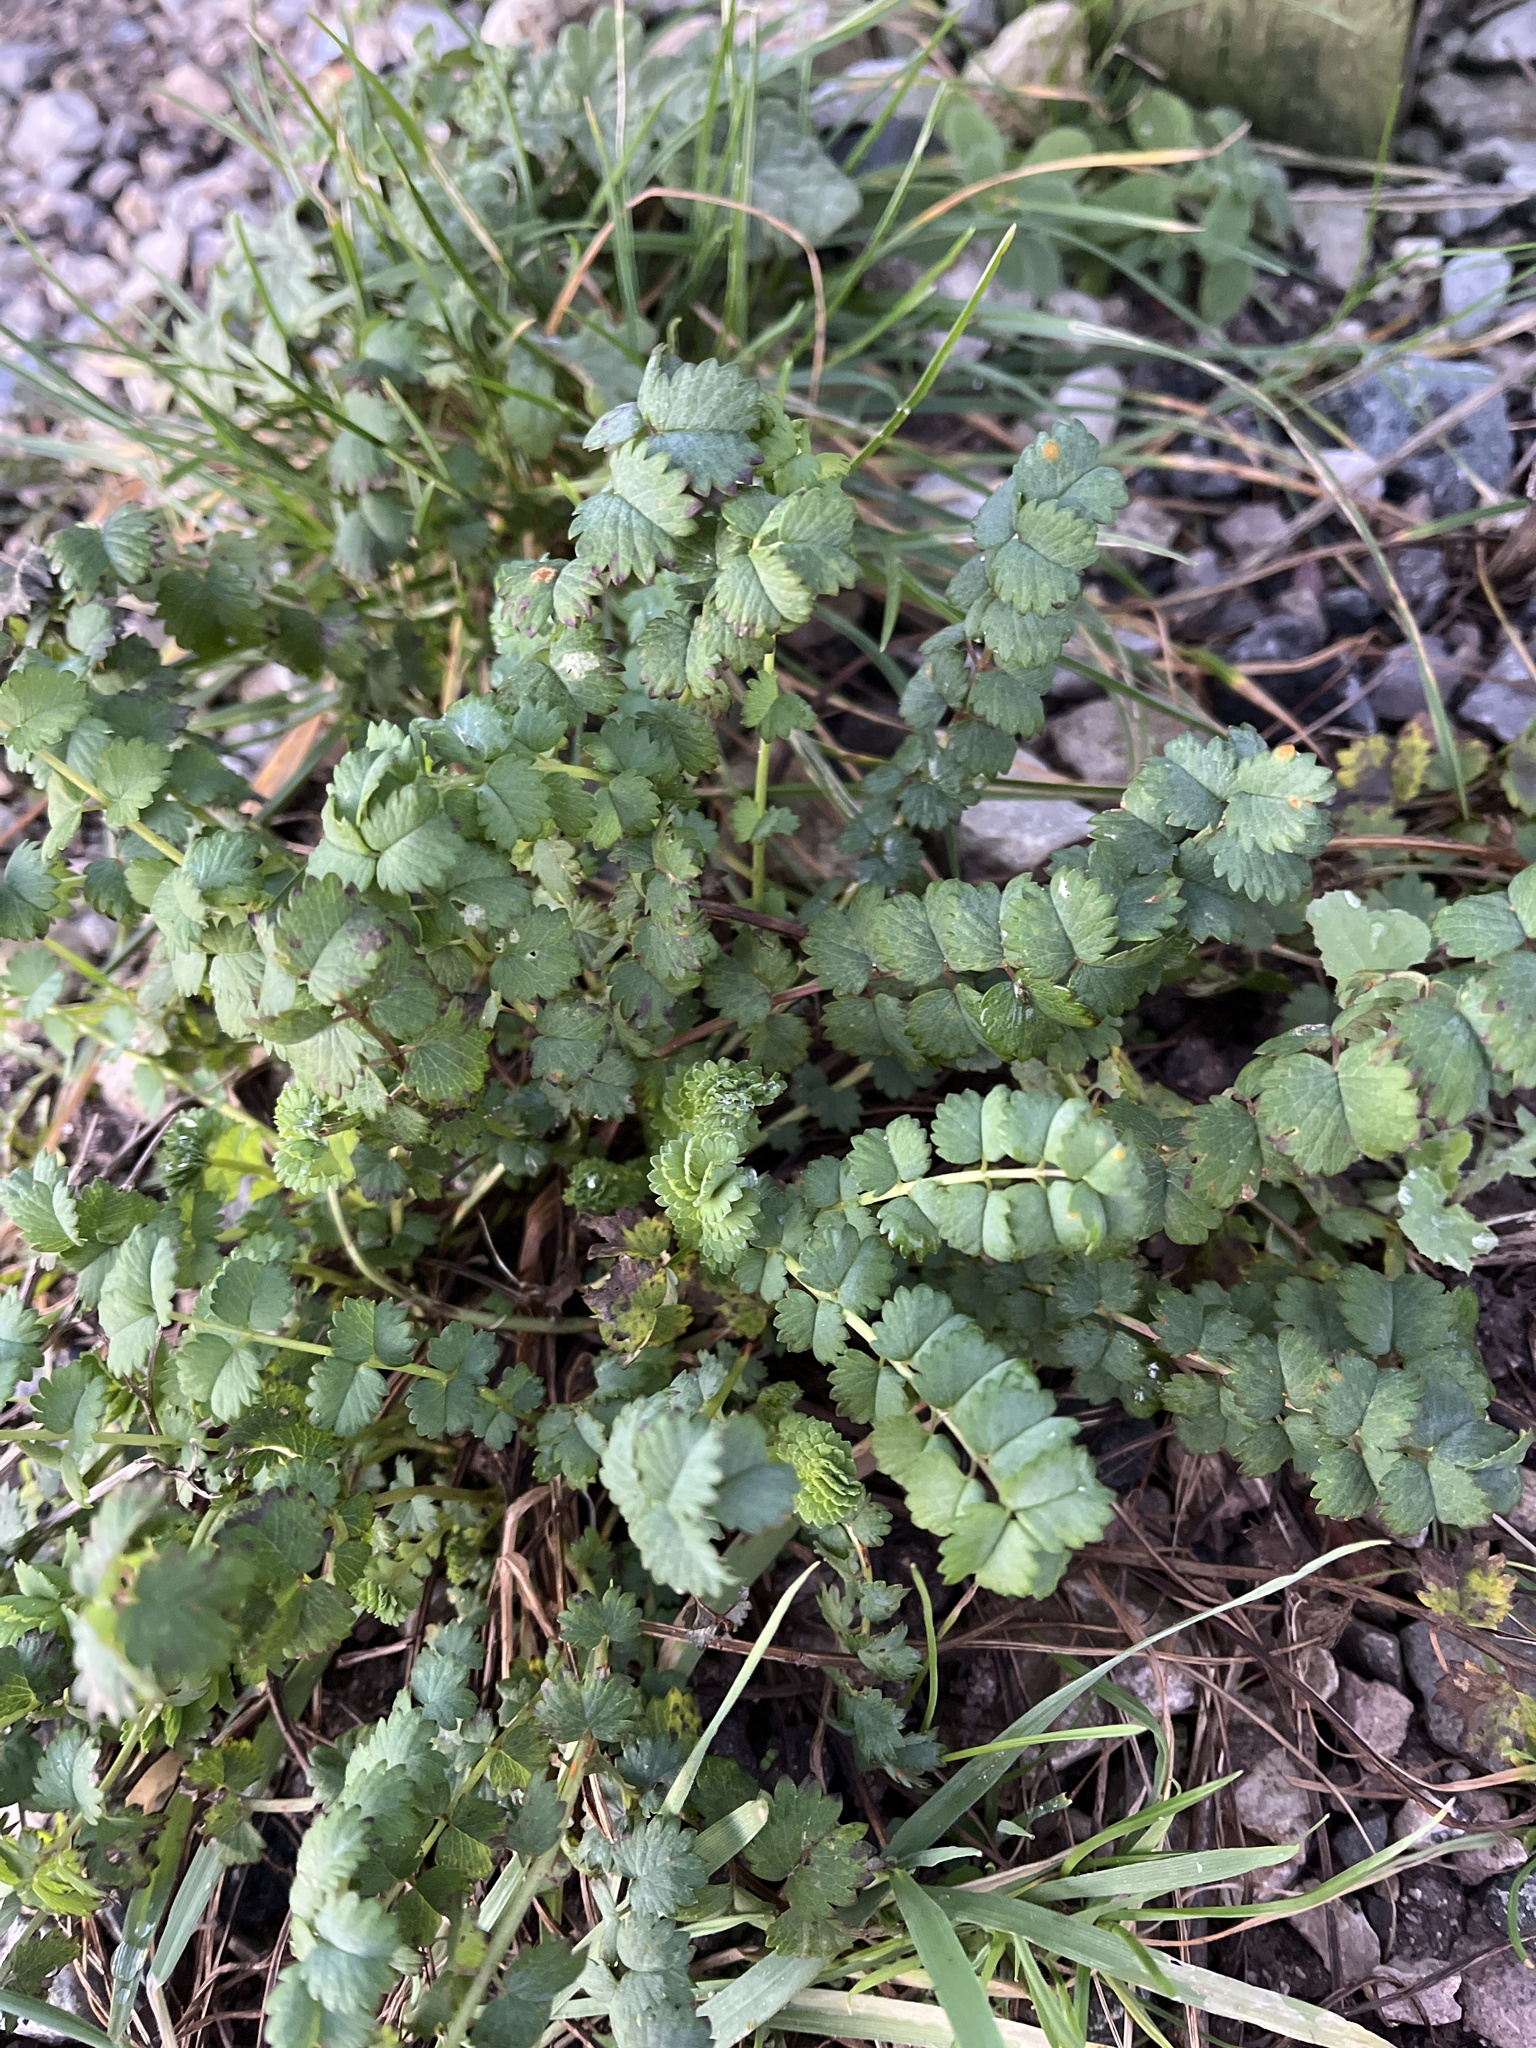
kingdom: Plantae
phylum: Tracheophyta
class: Magnoliopsida
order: Rosales
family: Rosaceae
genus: Poterium
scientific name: Poterium sanguisorba
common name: Salad burnet
